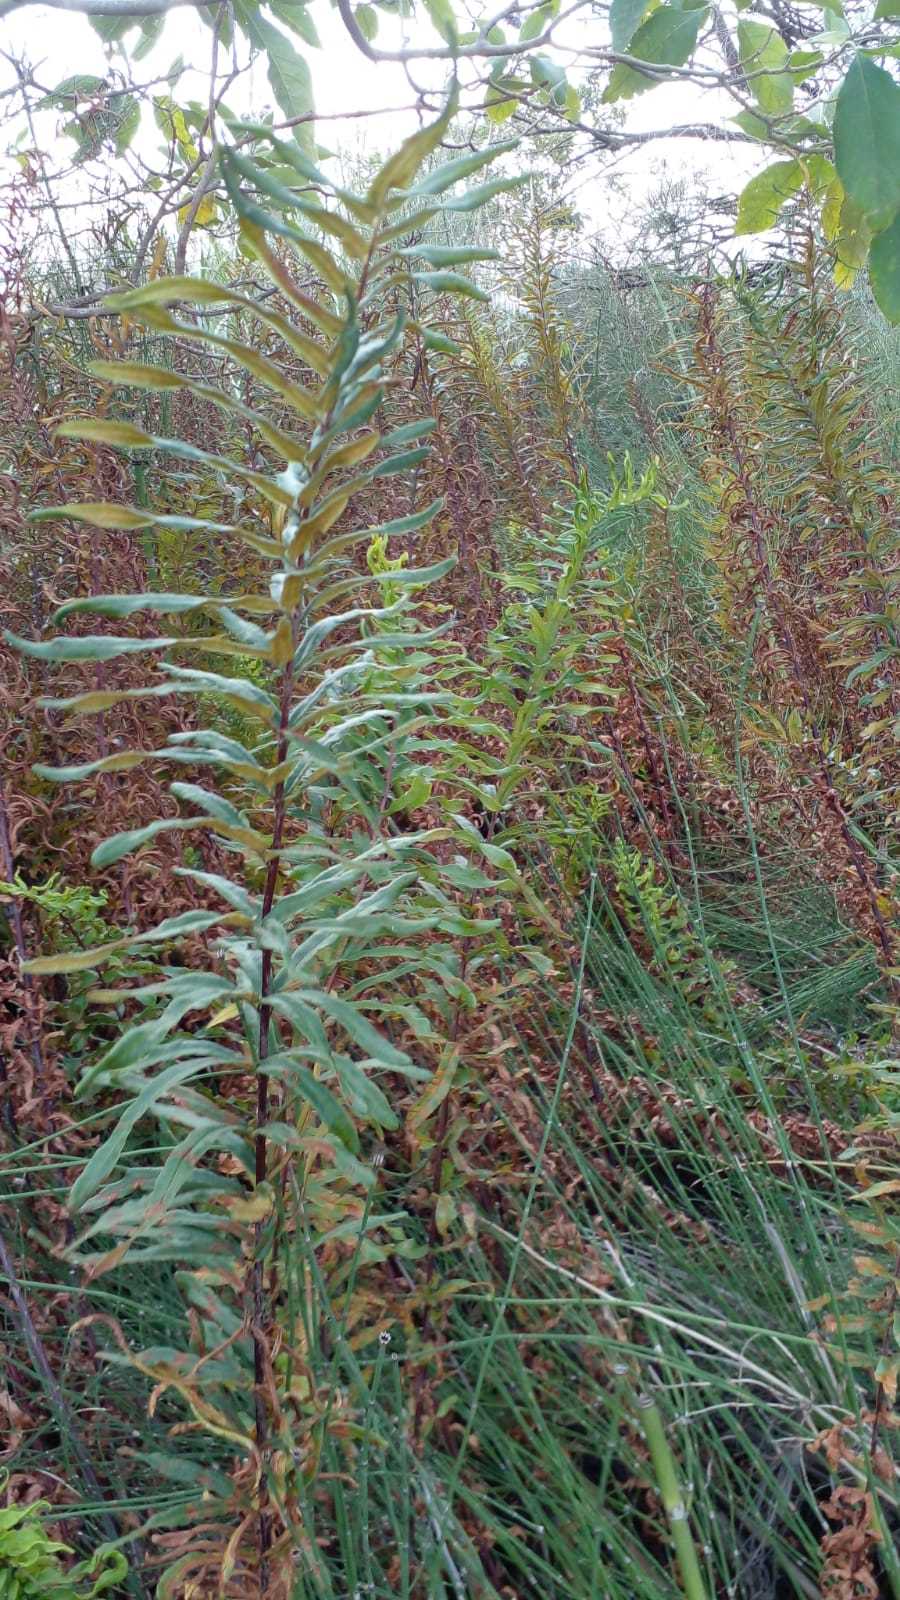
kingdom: Plantae
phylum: Tracheophyta
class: Polypodiopsida
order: Polypodiales
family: Pteridaceae
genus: Pityrogramma
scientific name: Pityrogramma trifoliata
